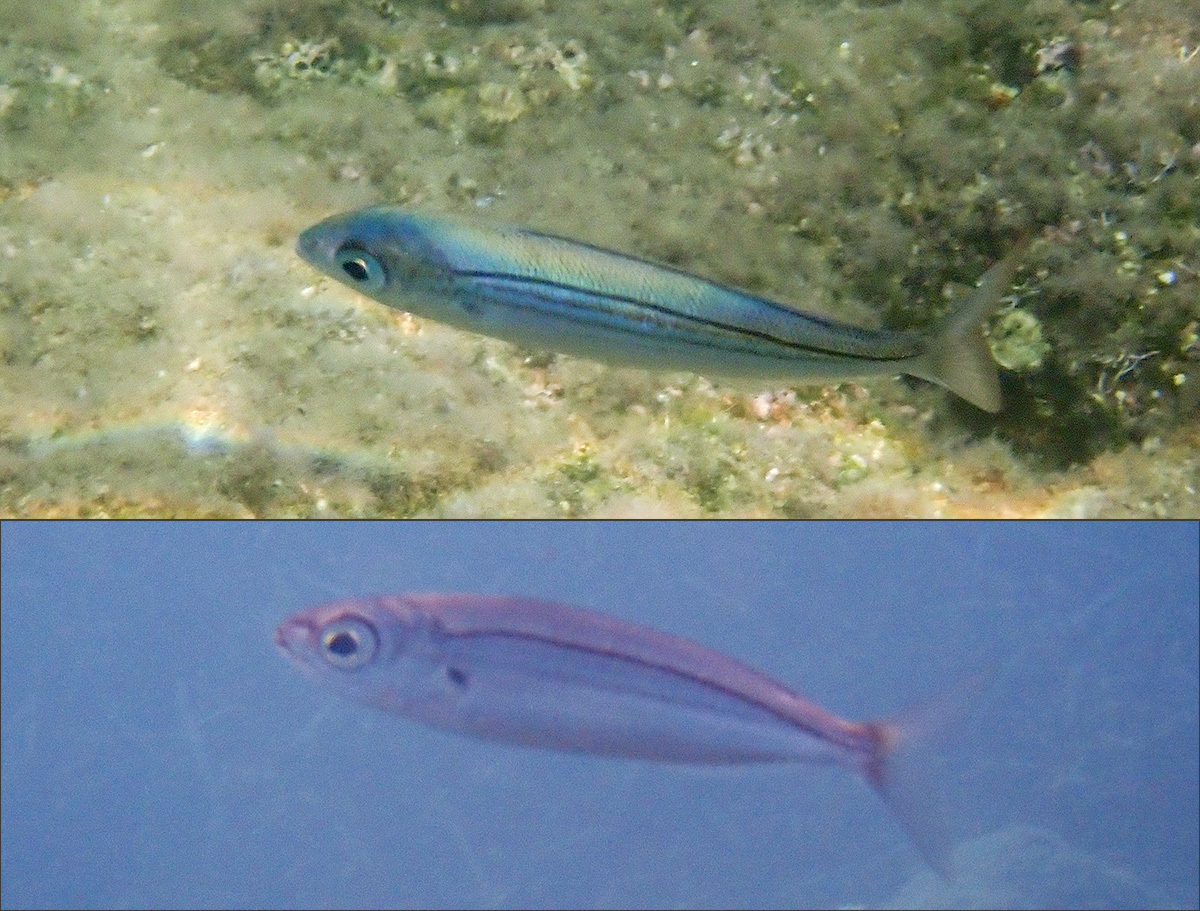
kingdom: Animalia
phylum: Chordata
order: Perciformes
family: Sparidae
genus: Boops
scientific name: Boops boops
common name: Bogue
